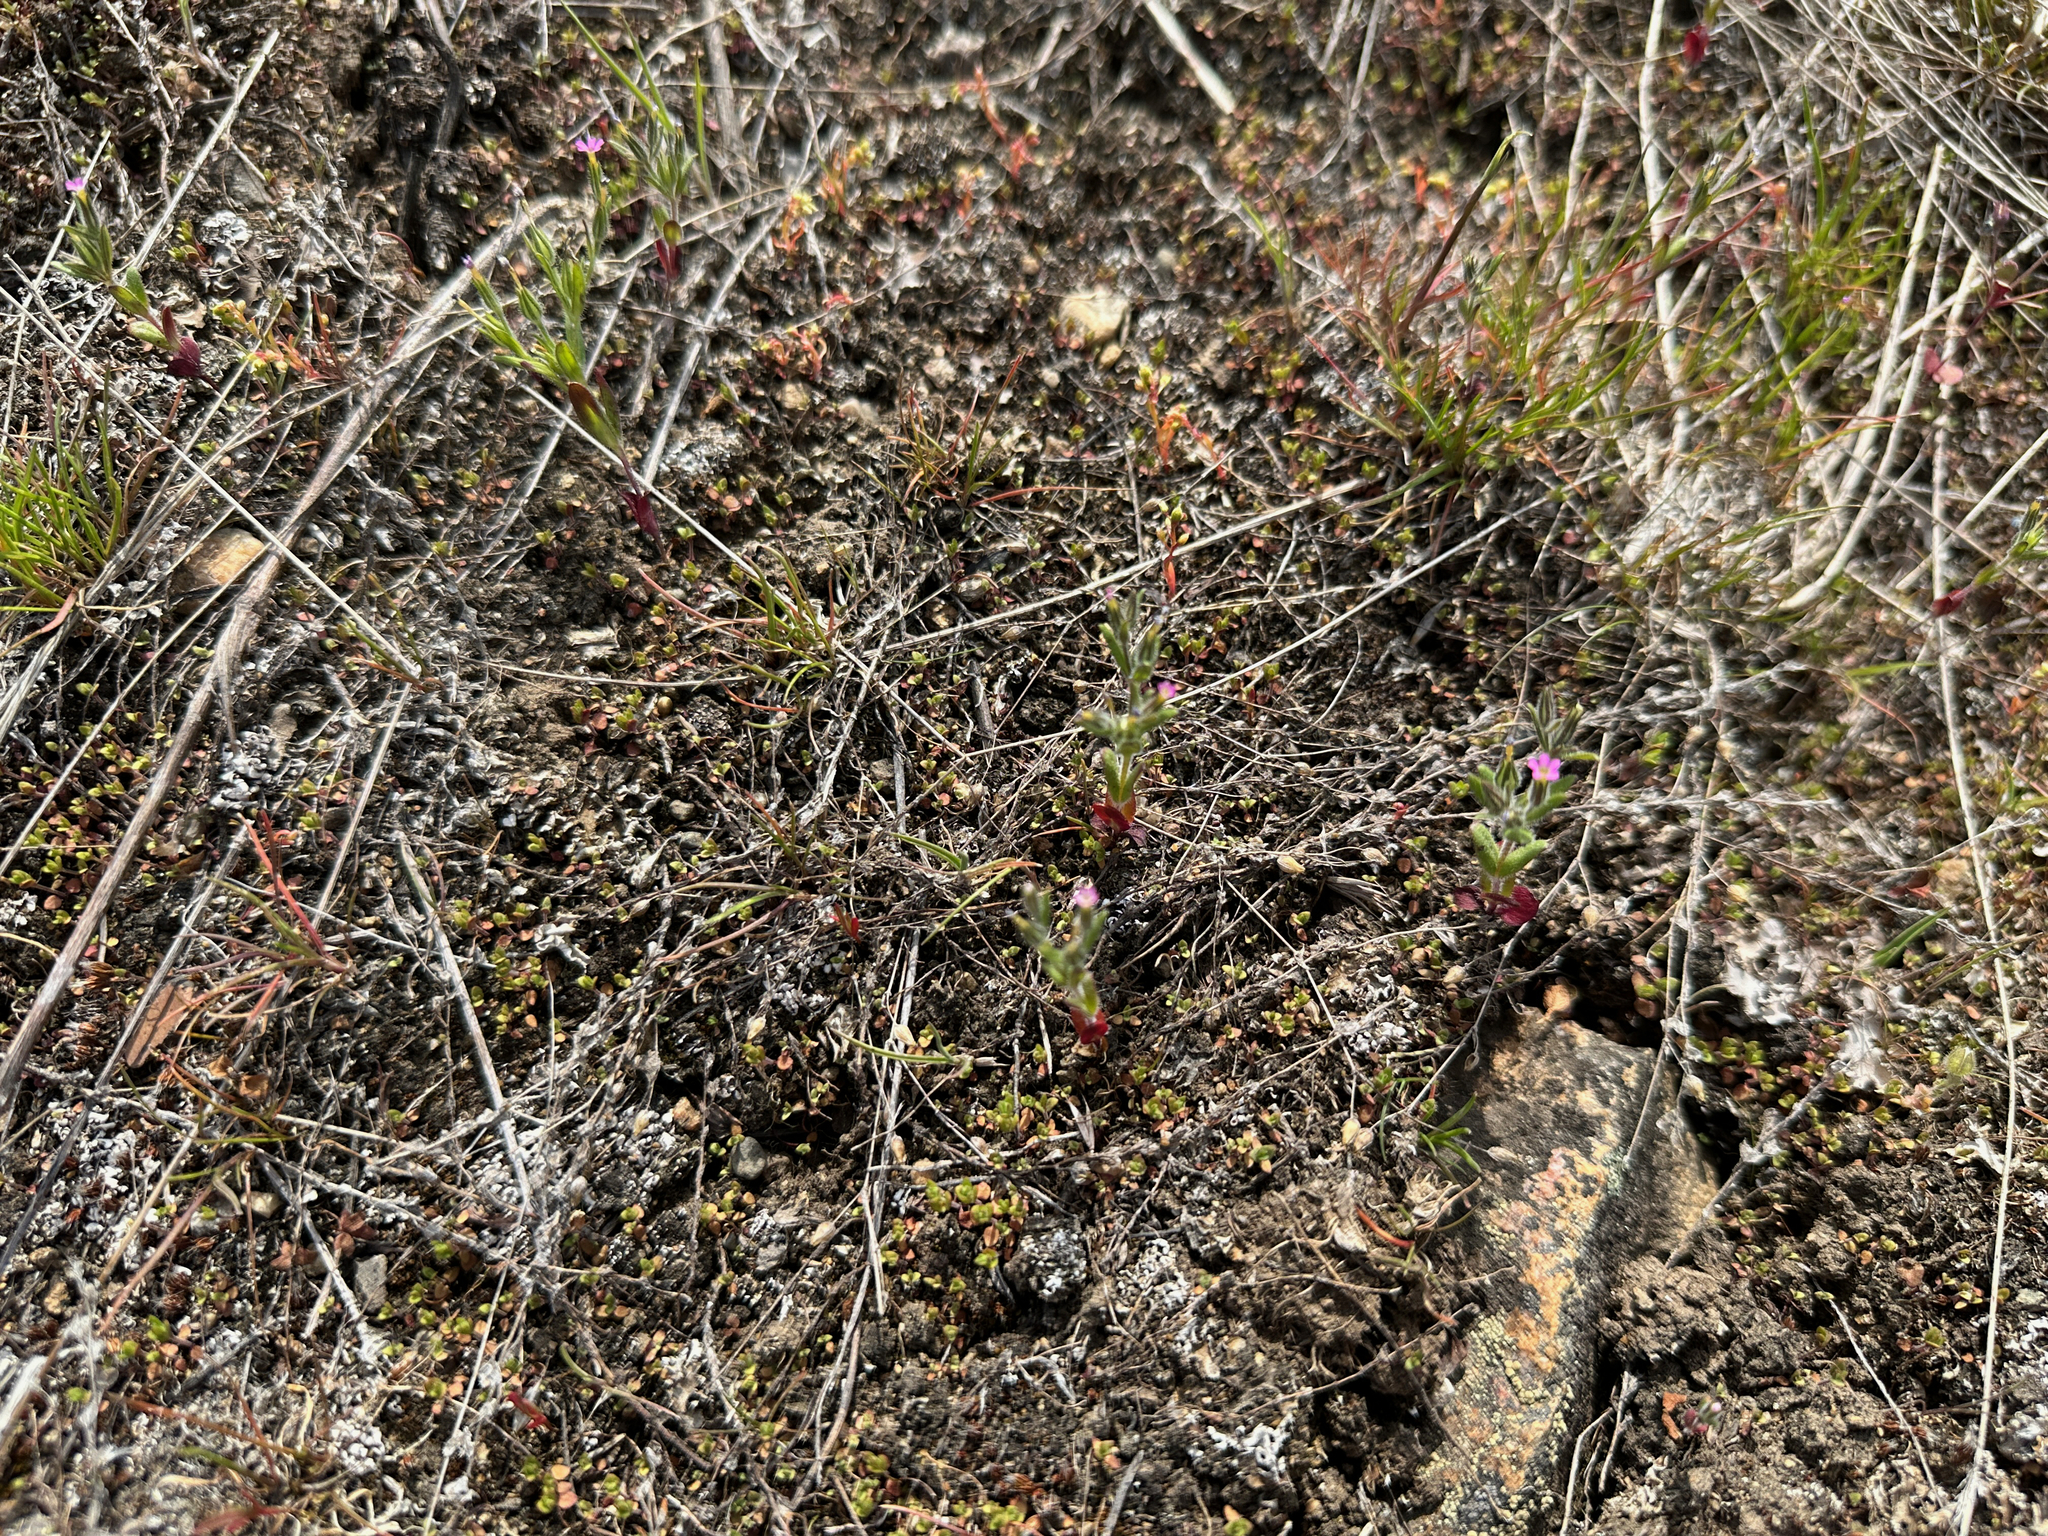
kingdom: Plantae
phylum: Tracheophyta
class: Magnoliopsida
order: Ericales
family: Polemoniaceae
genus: Phlox
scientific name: Phlox gracilis
